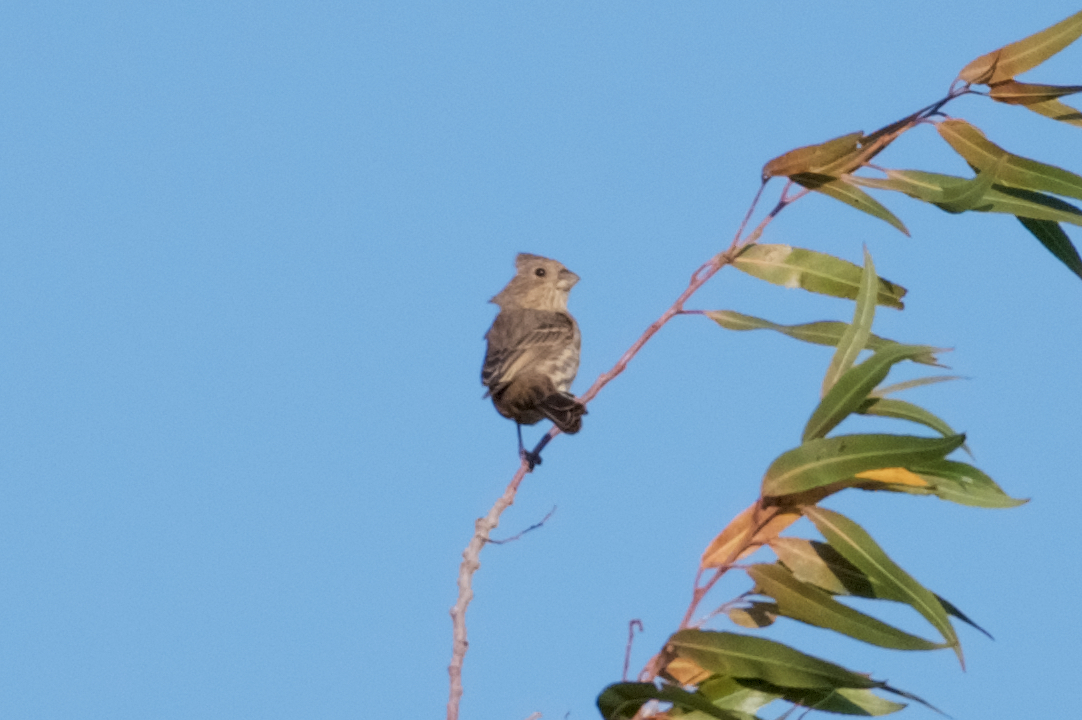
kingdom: Animalia
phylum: Chordata
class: Aves
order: Passeriformes
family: Fringillidae
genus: Haemorhous
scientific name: Haemorhous mexicanus
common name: House finch
